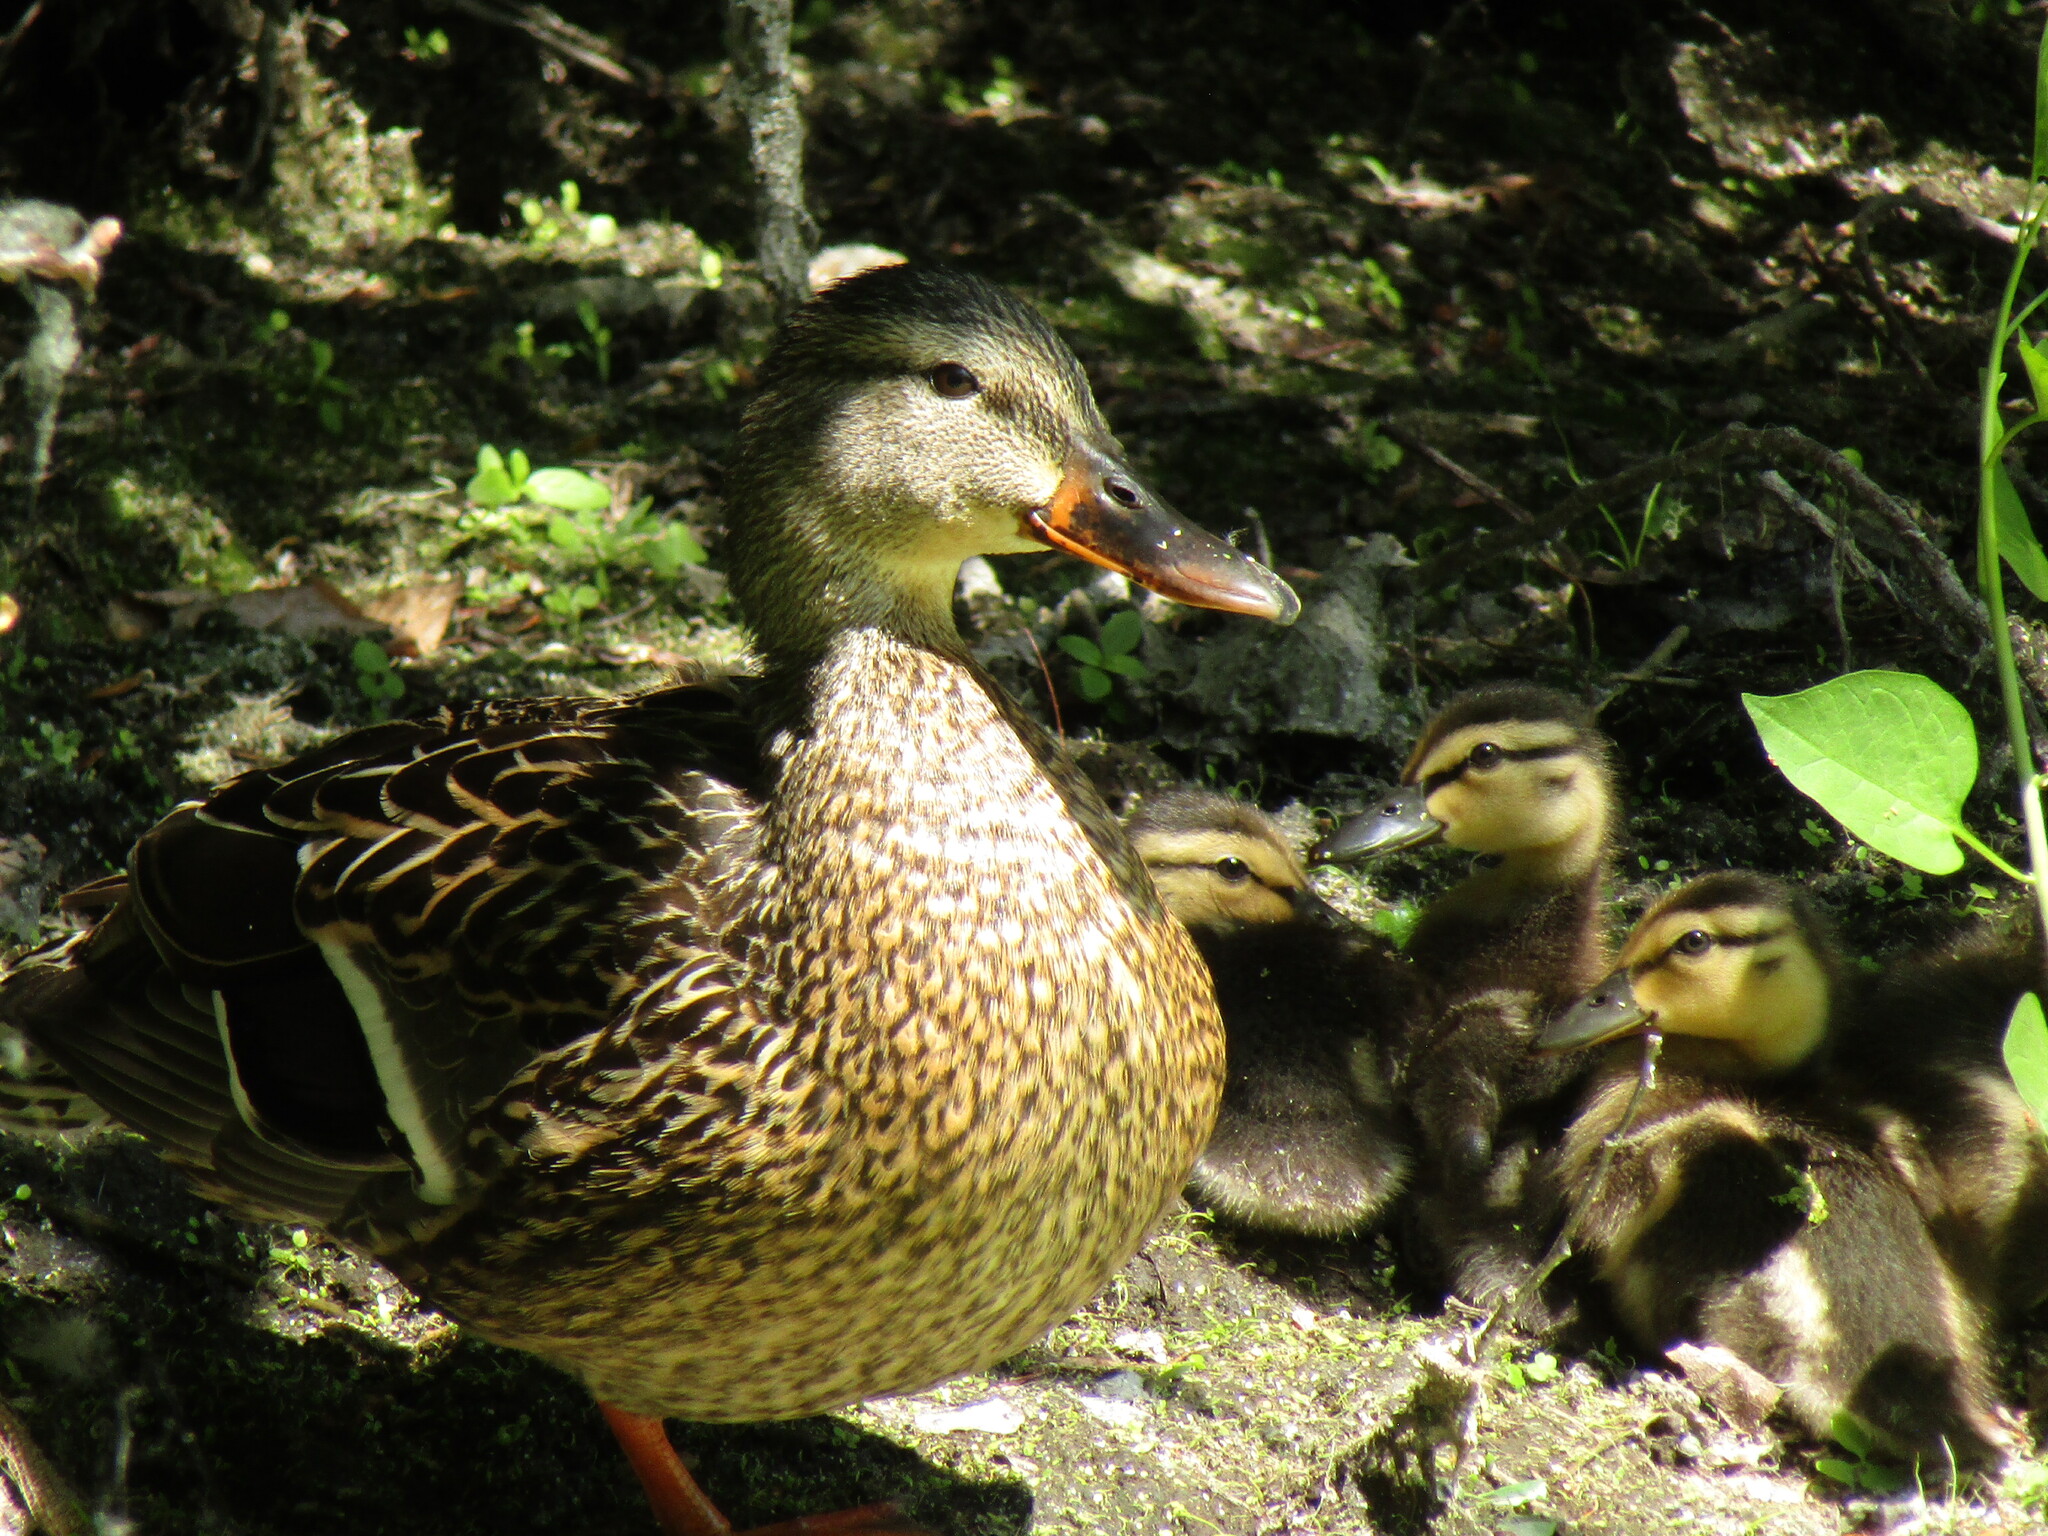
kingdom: Animalia
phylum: Chordata
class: Aves
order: Anseriformes
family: Anatidae
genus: Anas
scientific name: Anas platyrhynchos
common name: Mallard
